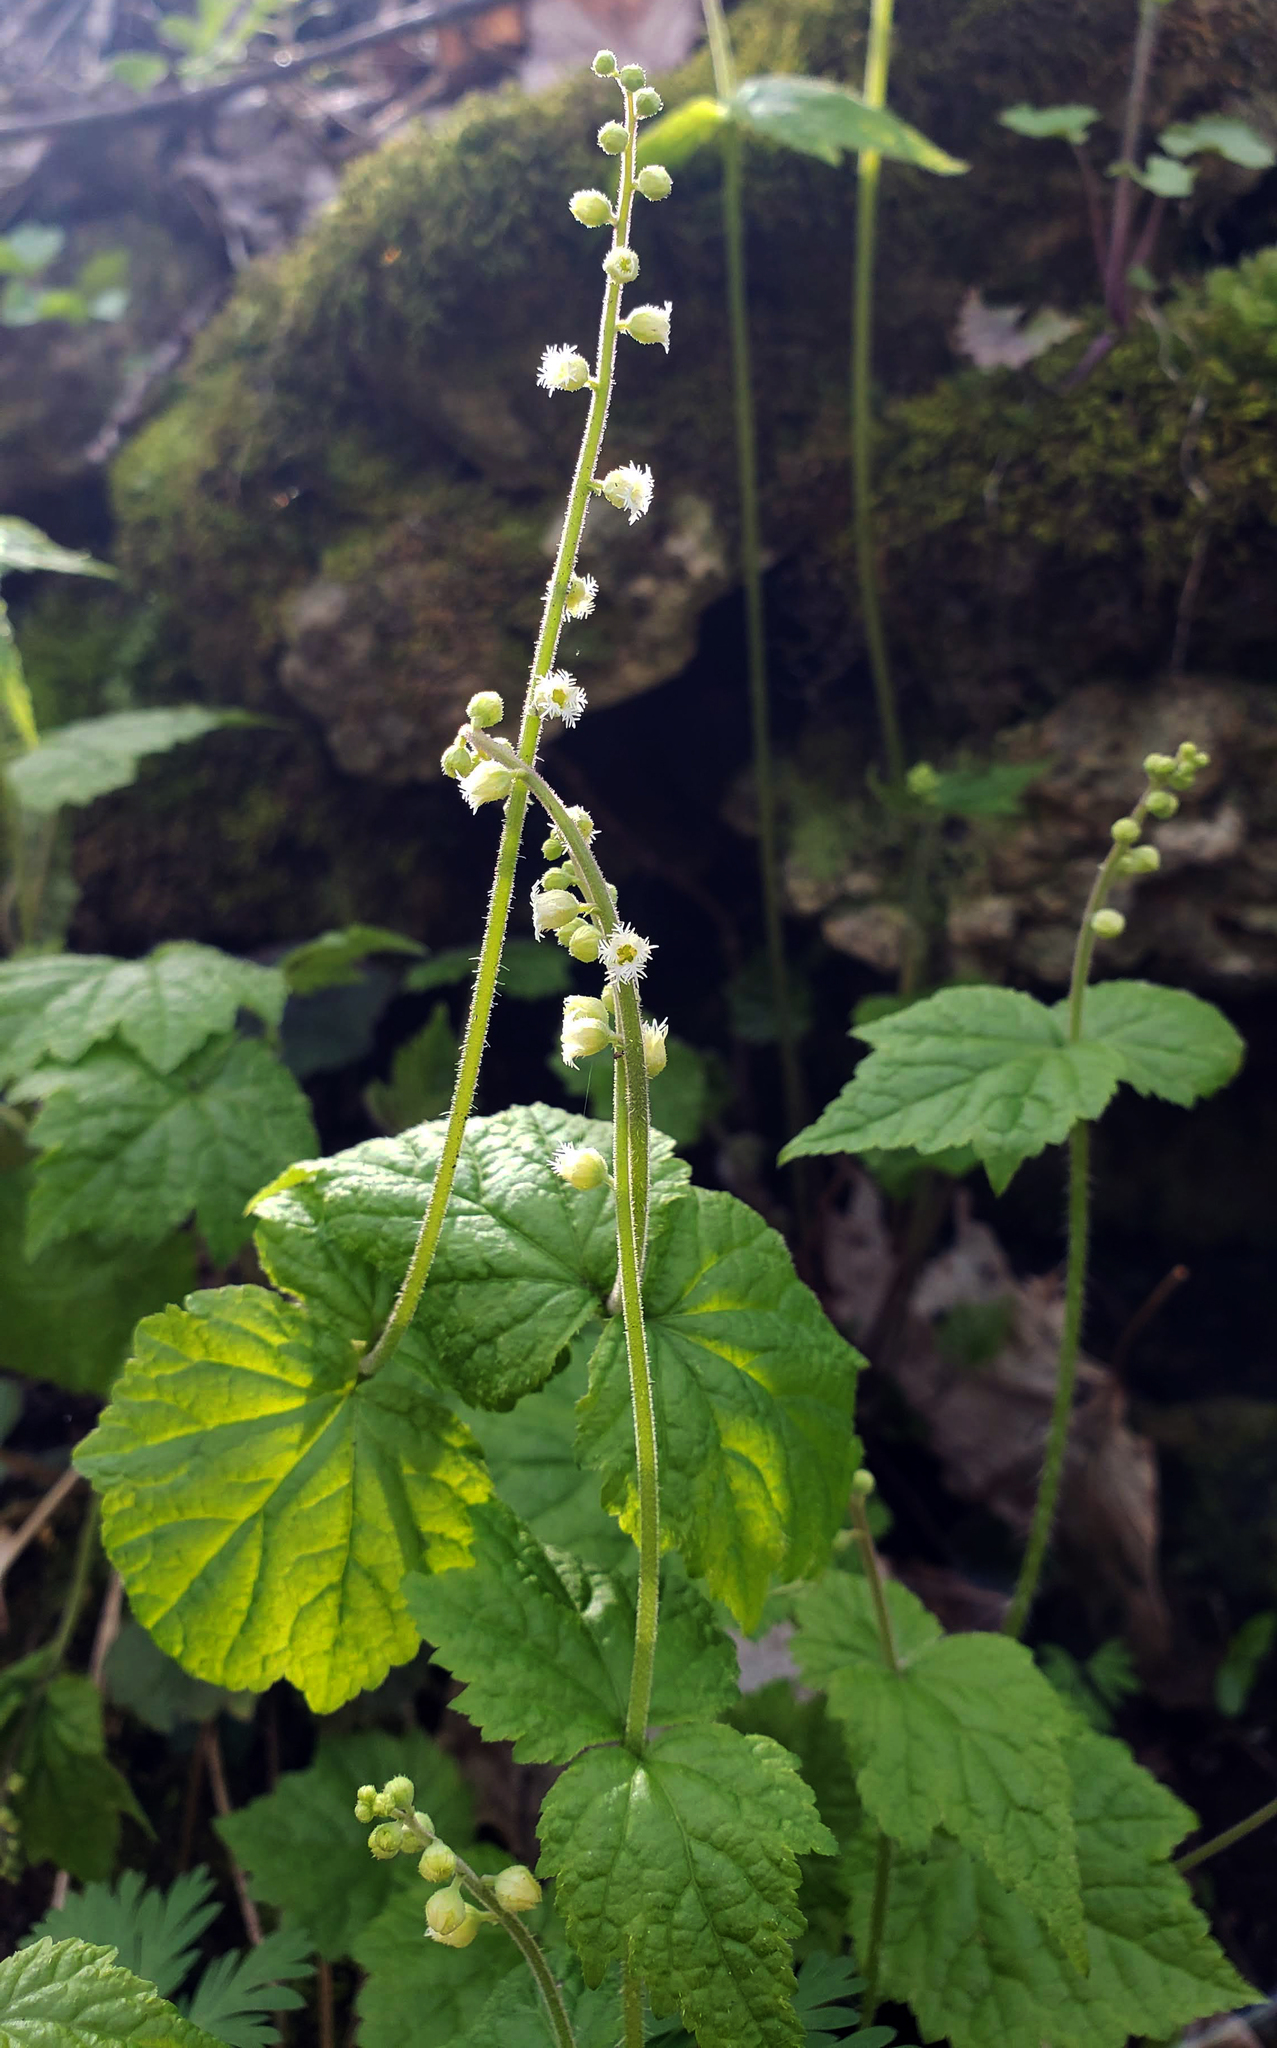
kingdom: Plantae
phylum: Tracheophyta
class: Magnoliopsida
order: Saxifragales
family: Saxifragaceae
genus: Mitella
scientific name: Mitella diphylla
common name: Coolwort
